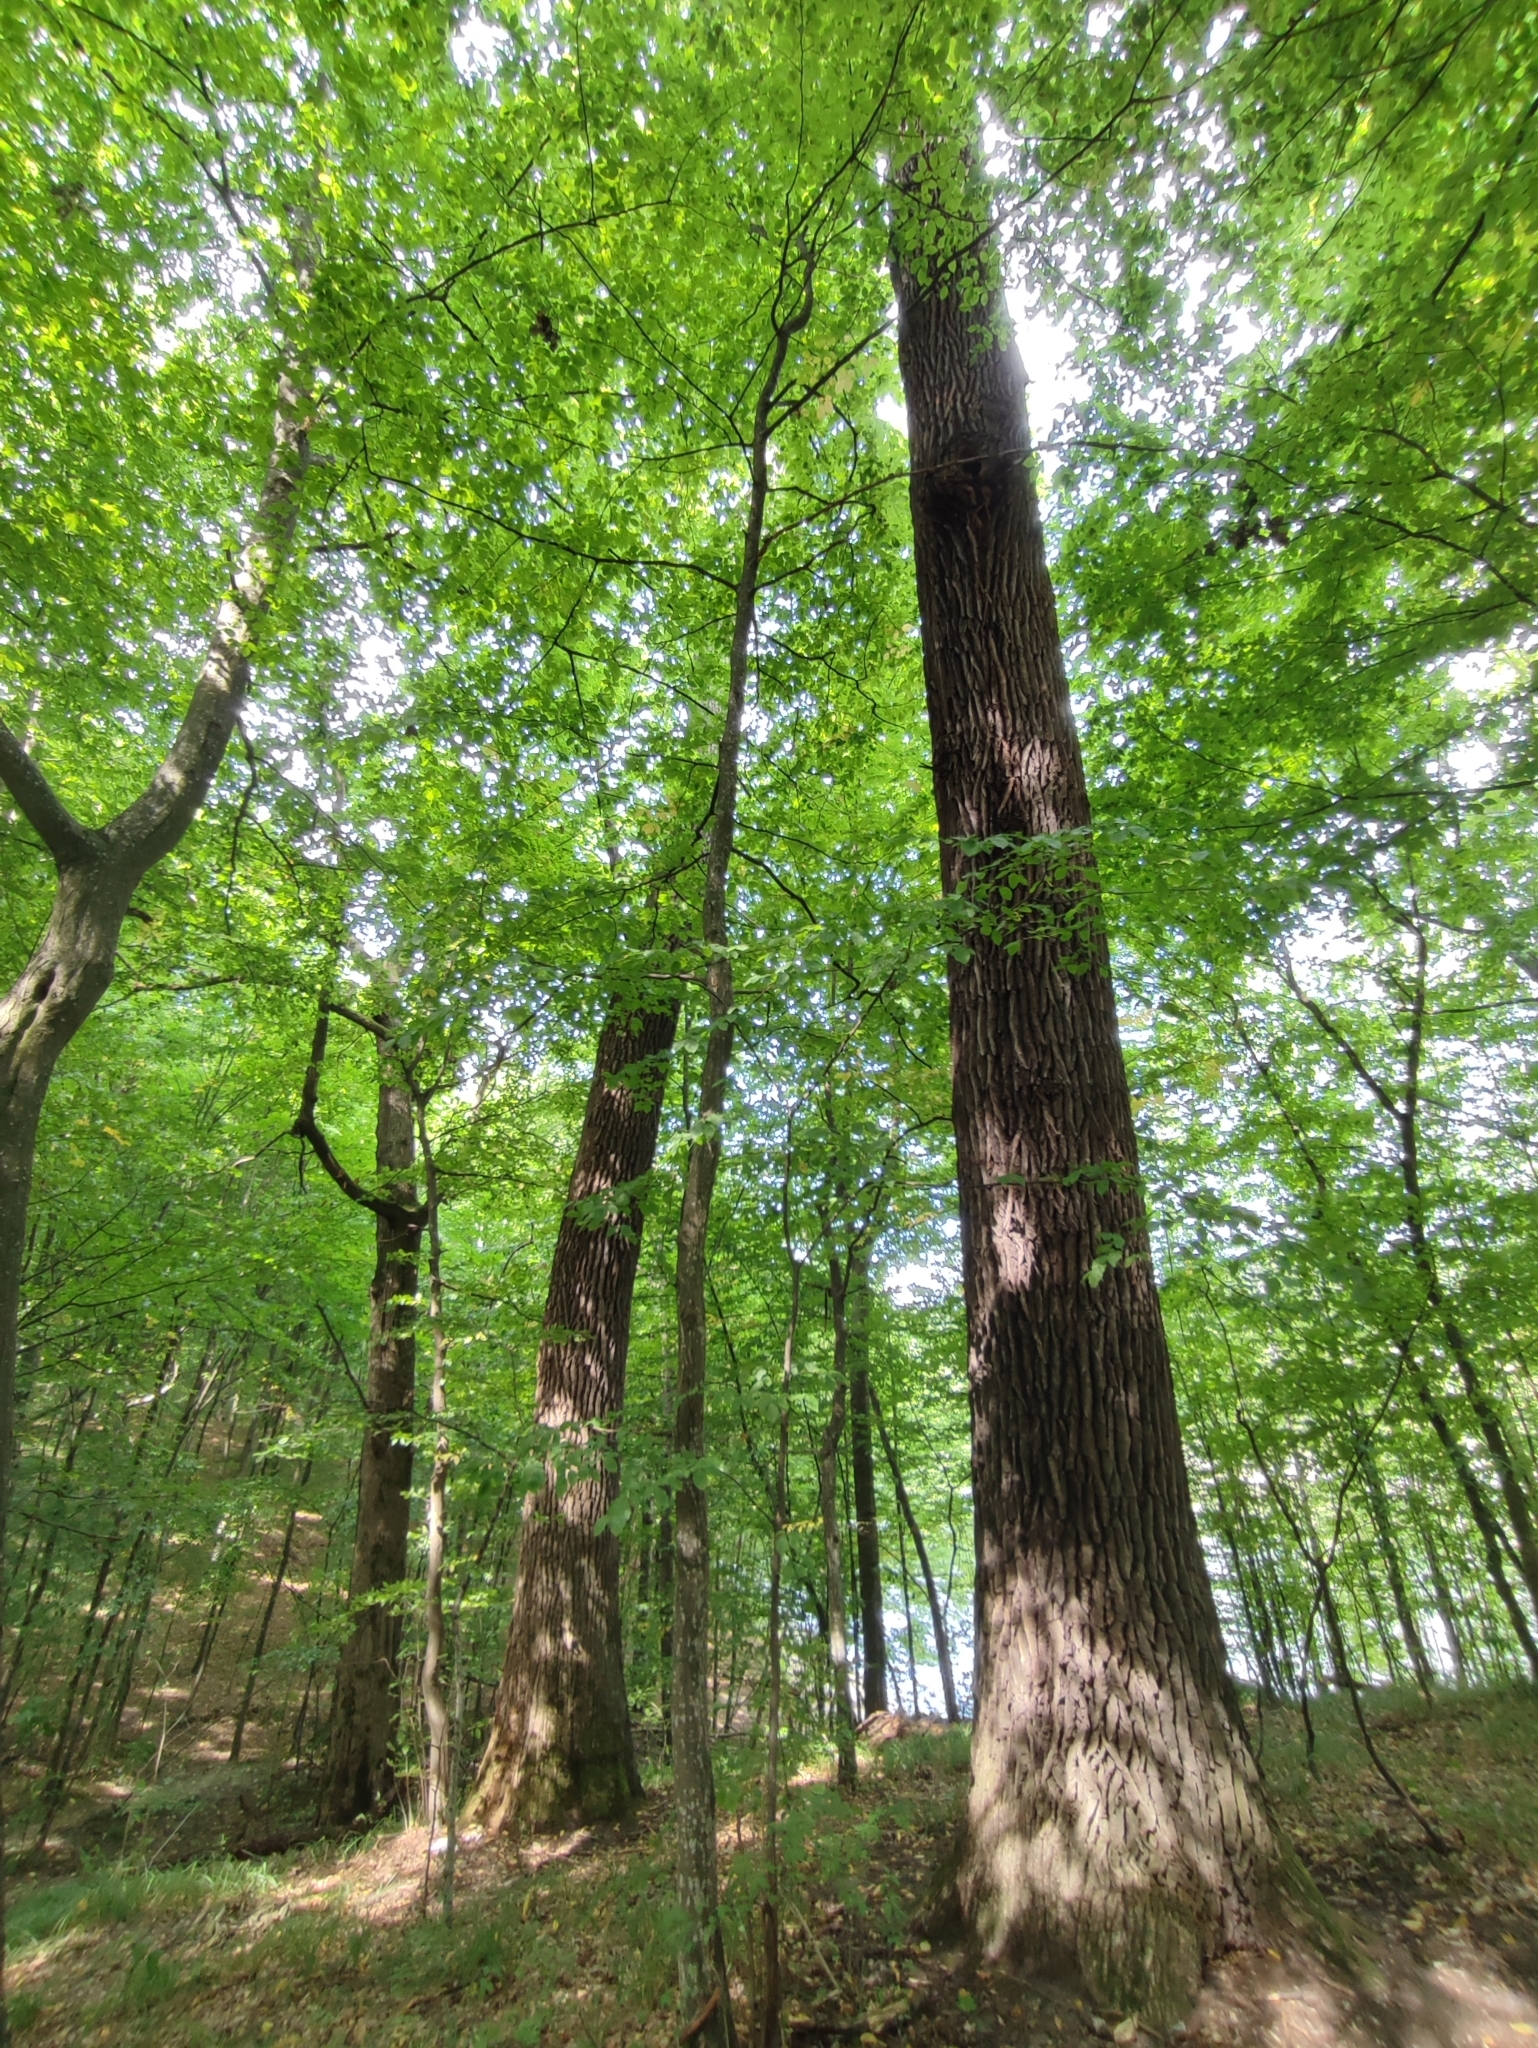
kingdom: Plantae
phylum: Tracheophyta
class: Magnoliopsida
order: Fagales
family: Fagaceae
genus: Quercus
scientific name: Quercus robur
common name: Pedunculate oak
